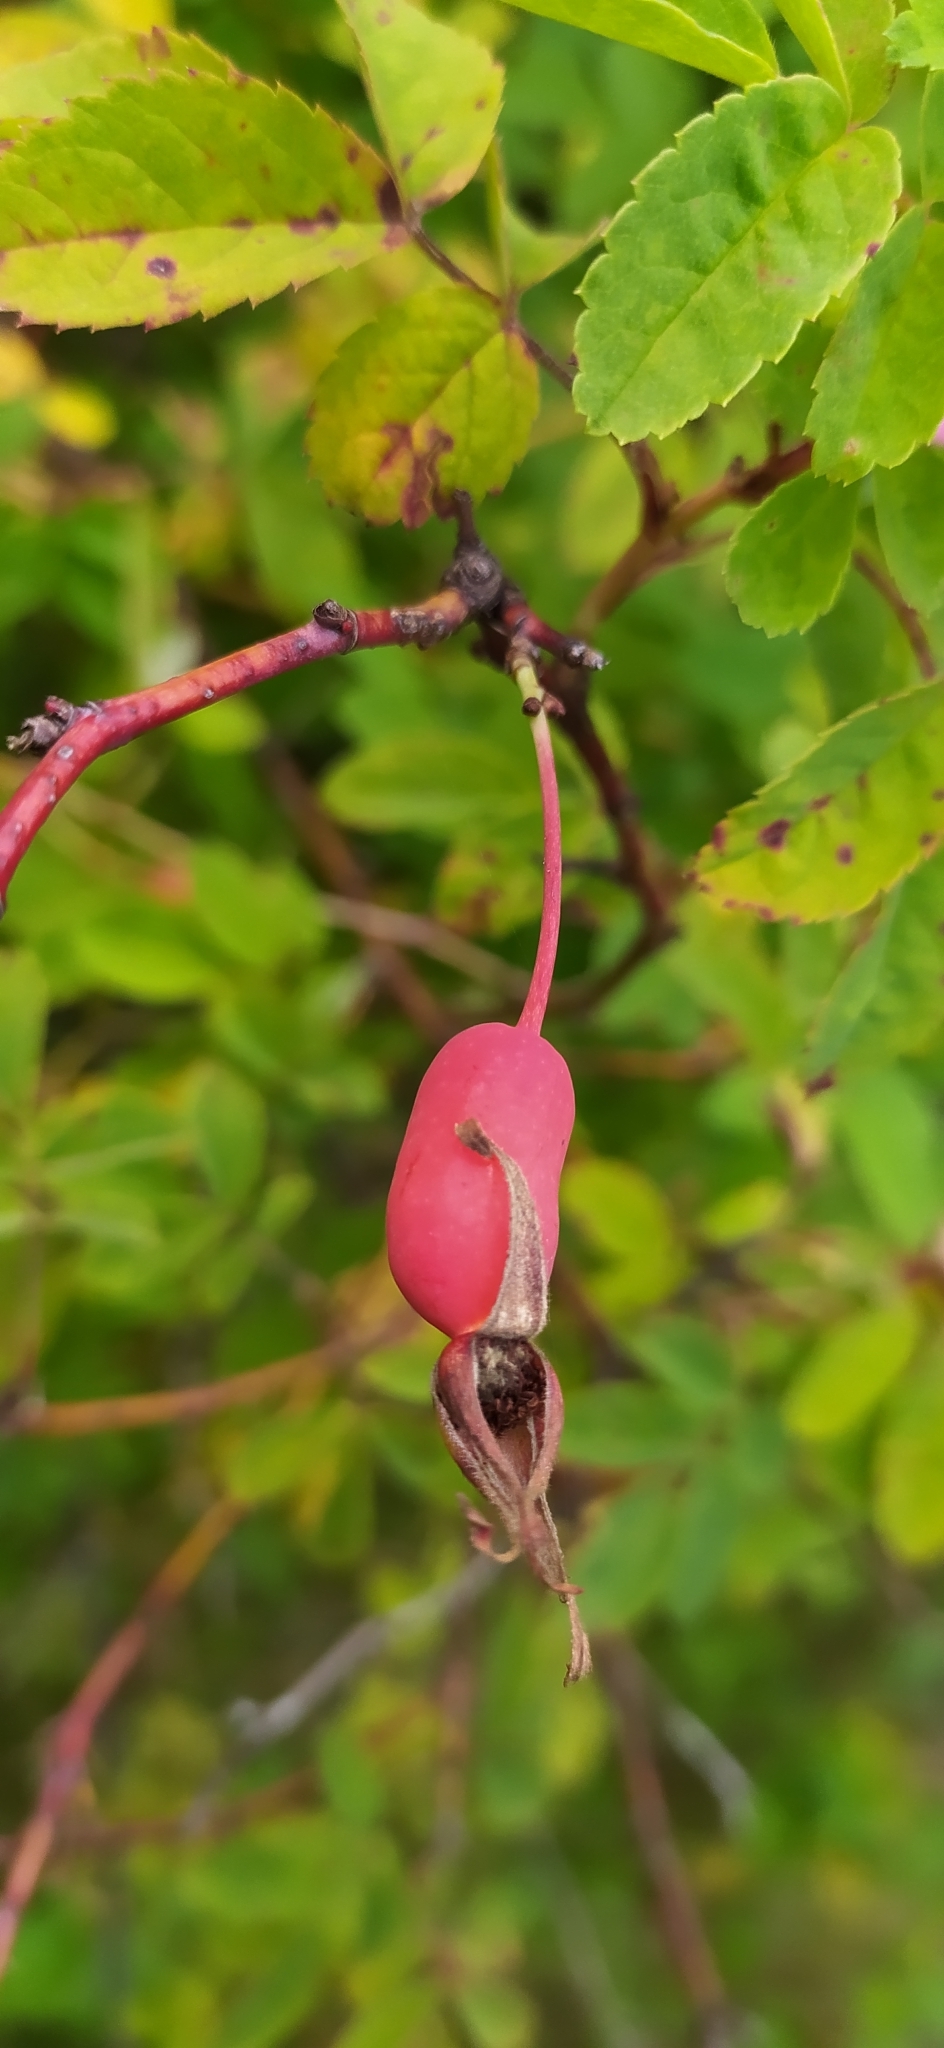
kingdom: Plantae
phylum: Tracheophyta
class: Magnoliopsida
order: Rosales
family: Rosaceae
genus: Rosa
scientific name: Rosa majalis
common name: Cinnamon rose
